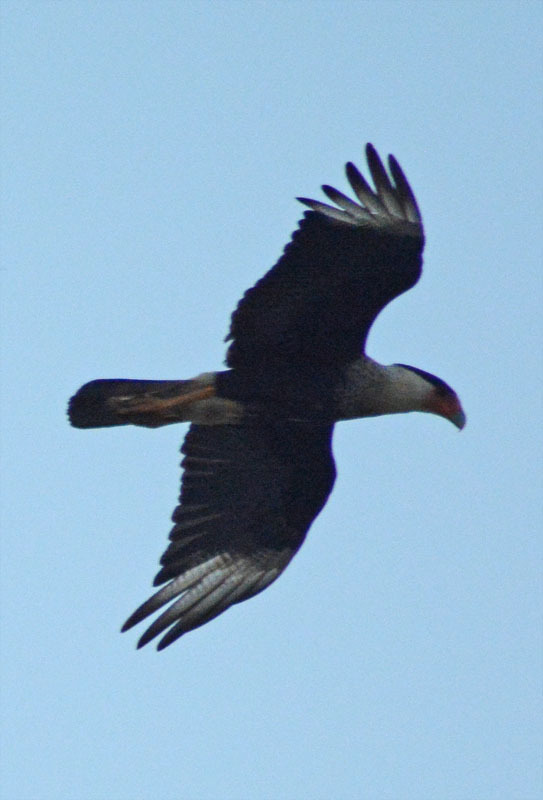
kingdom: Animalia
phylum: Chordata
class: Aves
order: Falconiformes
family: Falconidae
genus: Caracara
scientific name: Caracara plancus
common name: Southern caracara
